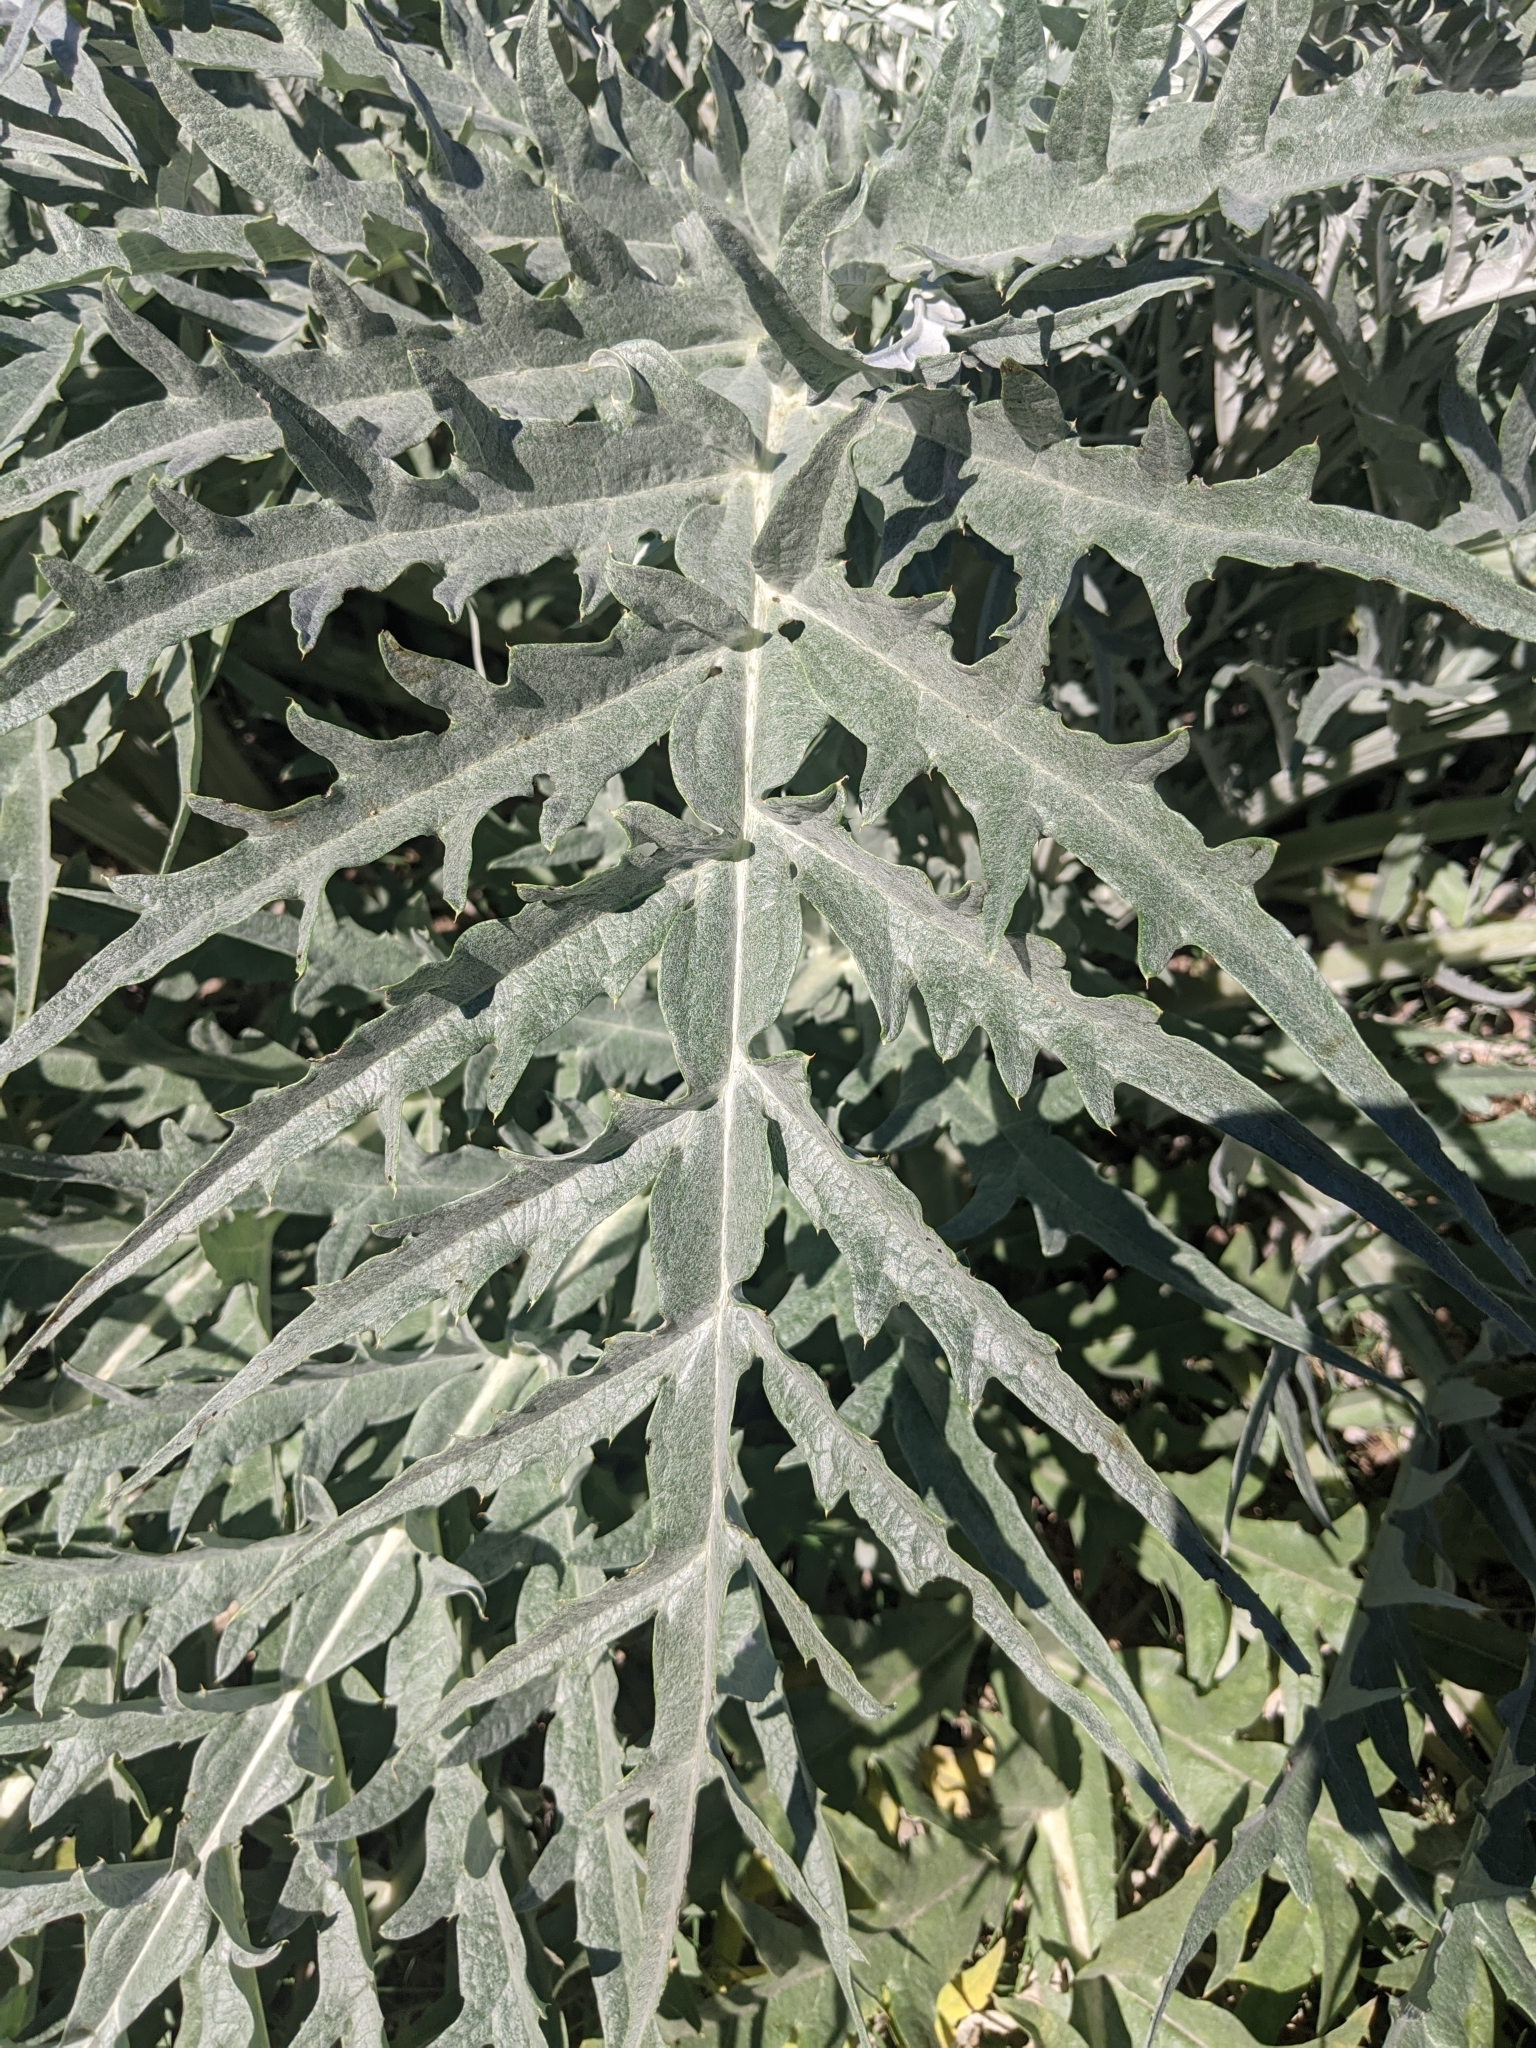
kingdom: Plantae
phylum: Tracheophyta
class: Magnoliopsida
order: Asterales
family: Asteraceae
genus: Cynara
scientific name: Cynara cardunculus
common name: Globe artichoke
